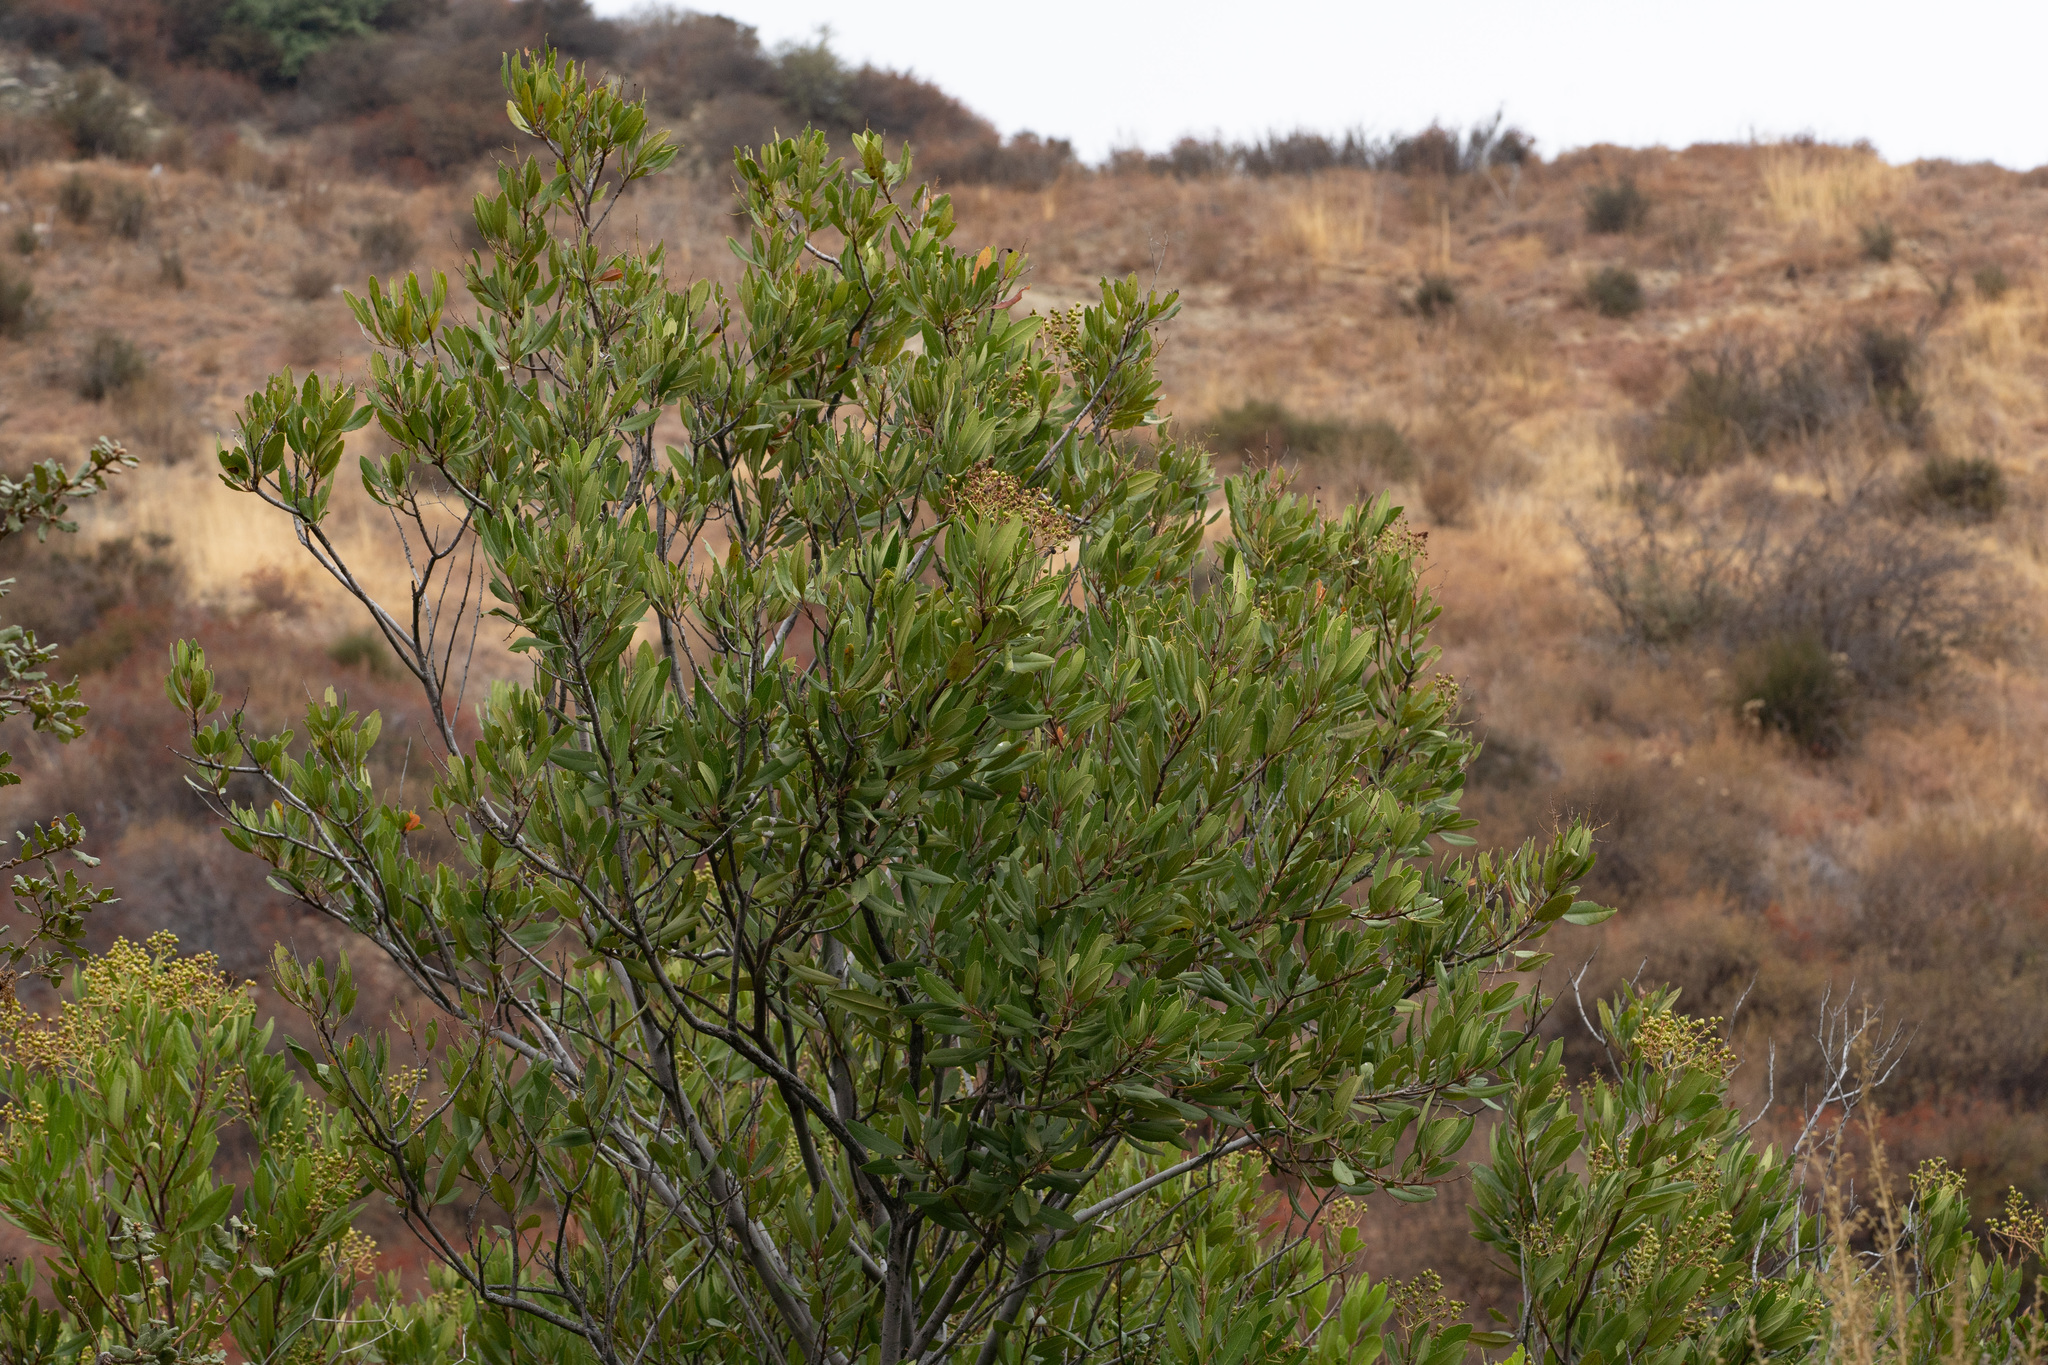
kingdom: Plantae
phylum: Tracheophyta
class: Magnoliopsida
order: Rosales
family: Rosaceae
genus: Heteromeles
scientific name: Heteromeles arbutifolia
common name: California-holly
